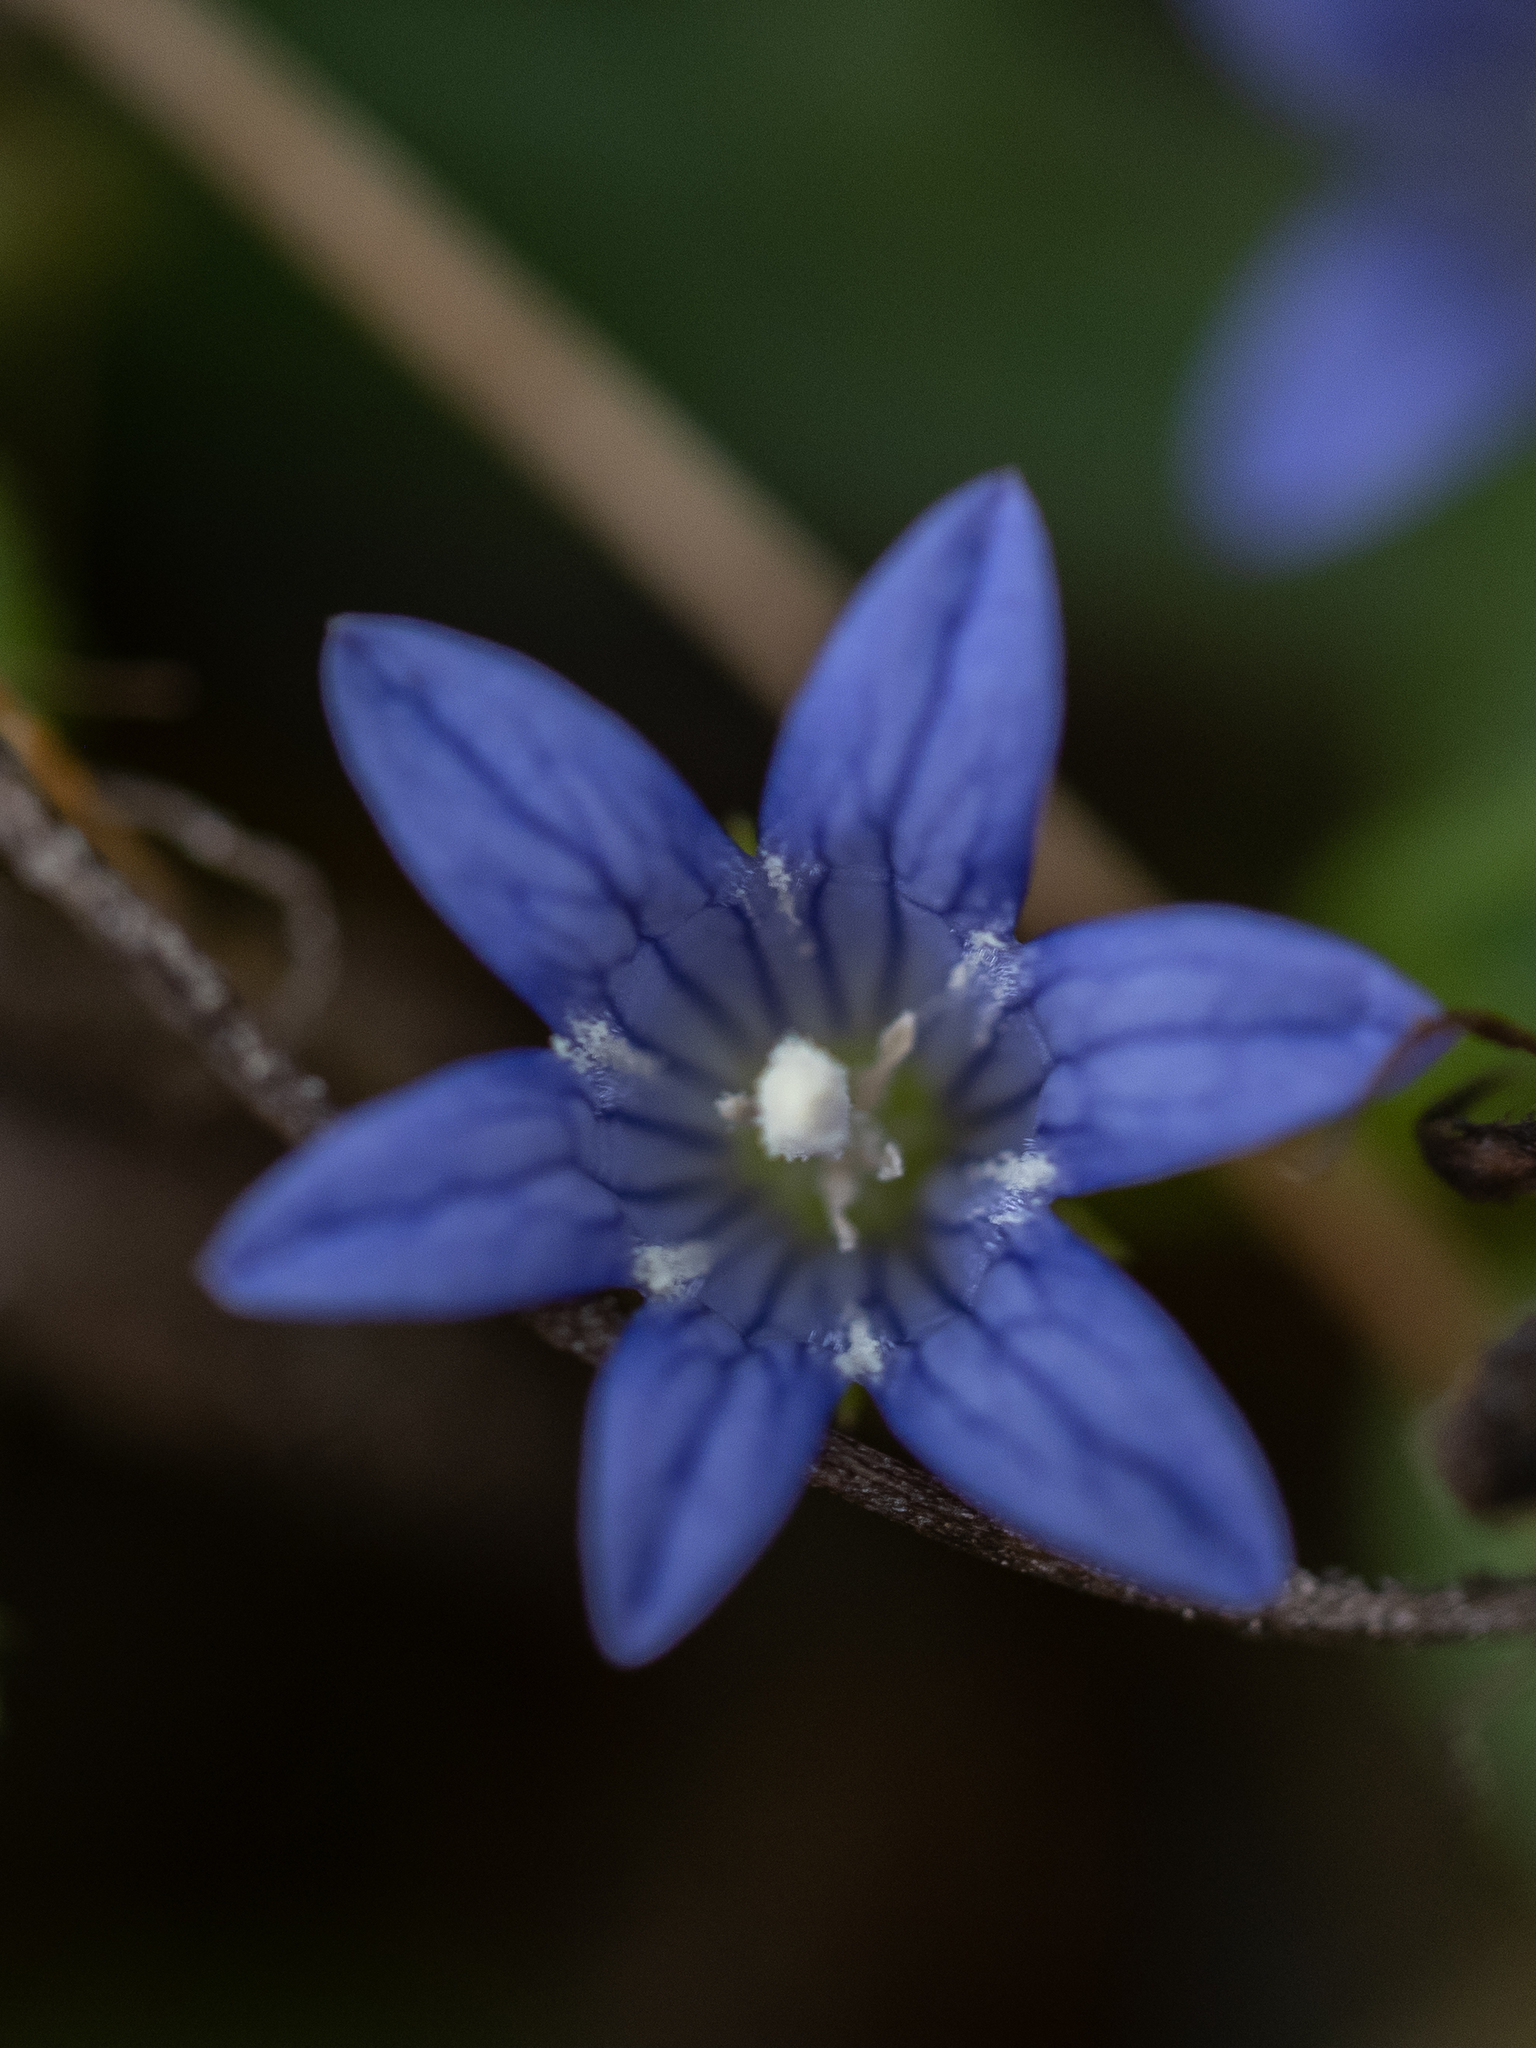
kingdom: Plantae
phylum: Tracheophyta
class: Magnoliopsida
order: Asterales
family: Campanulaceae
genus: Eastwoodiella
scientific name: Eastwoodiella californica
